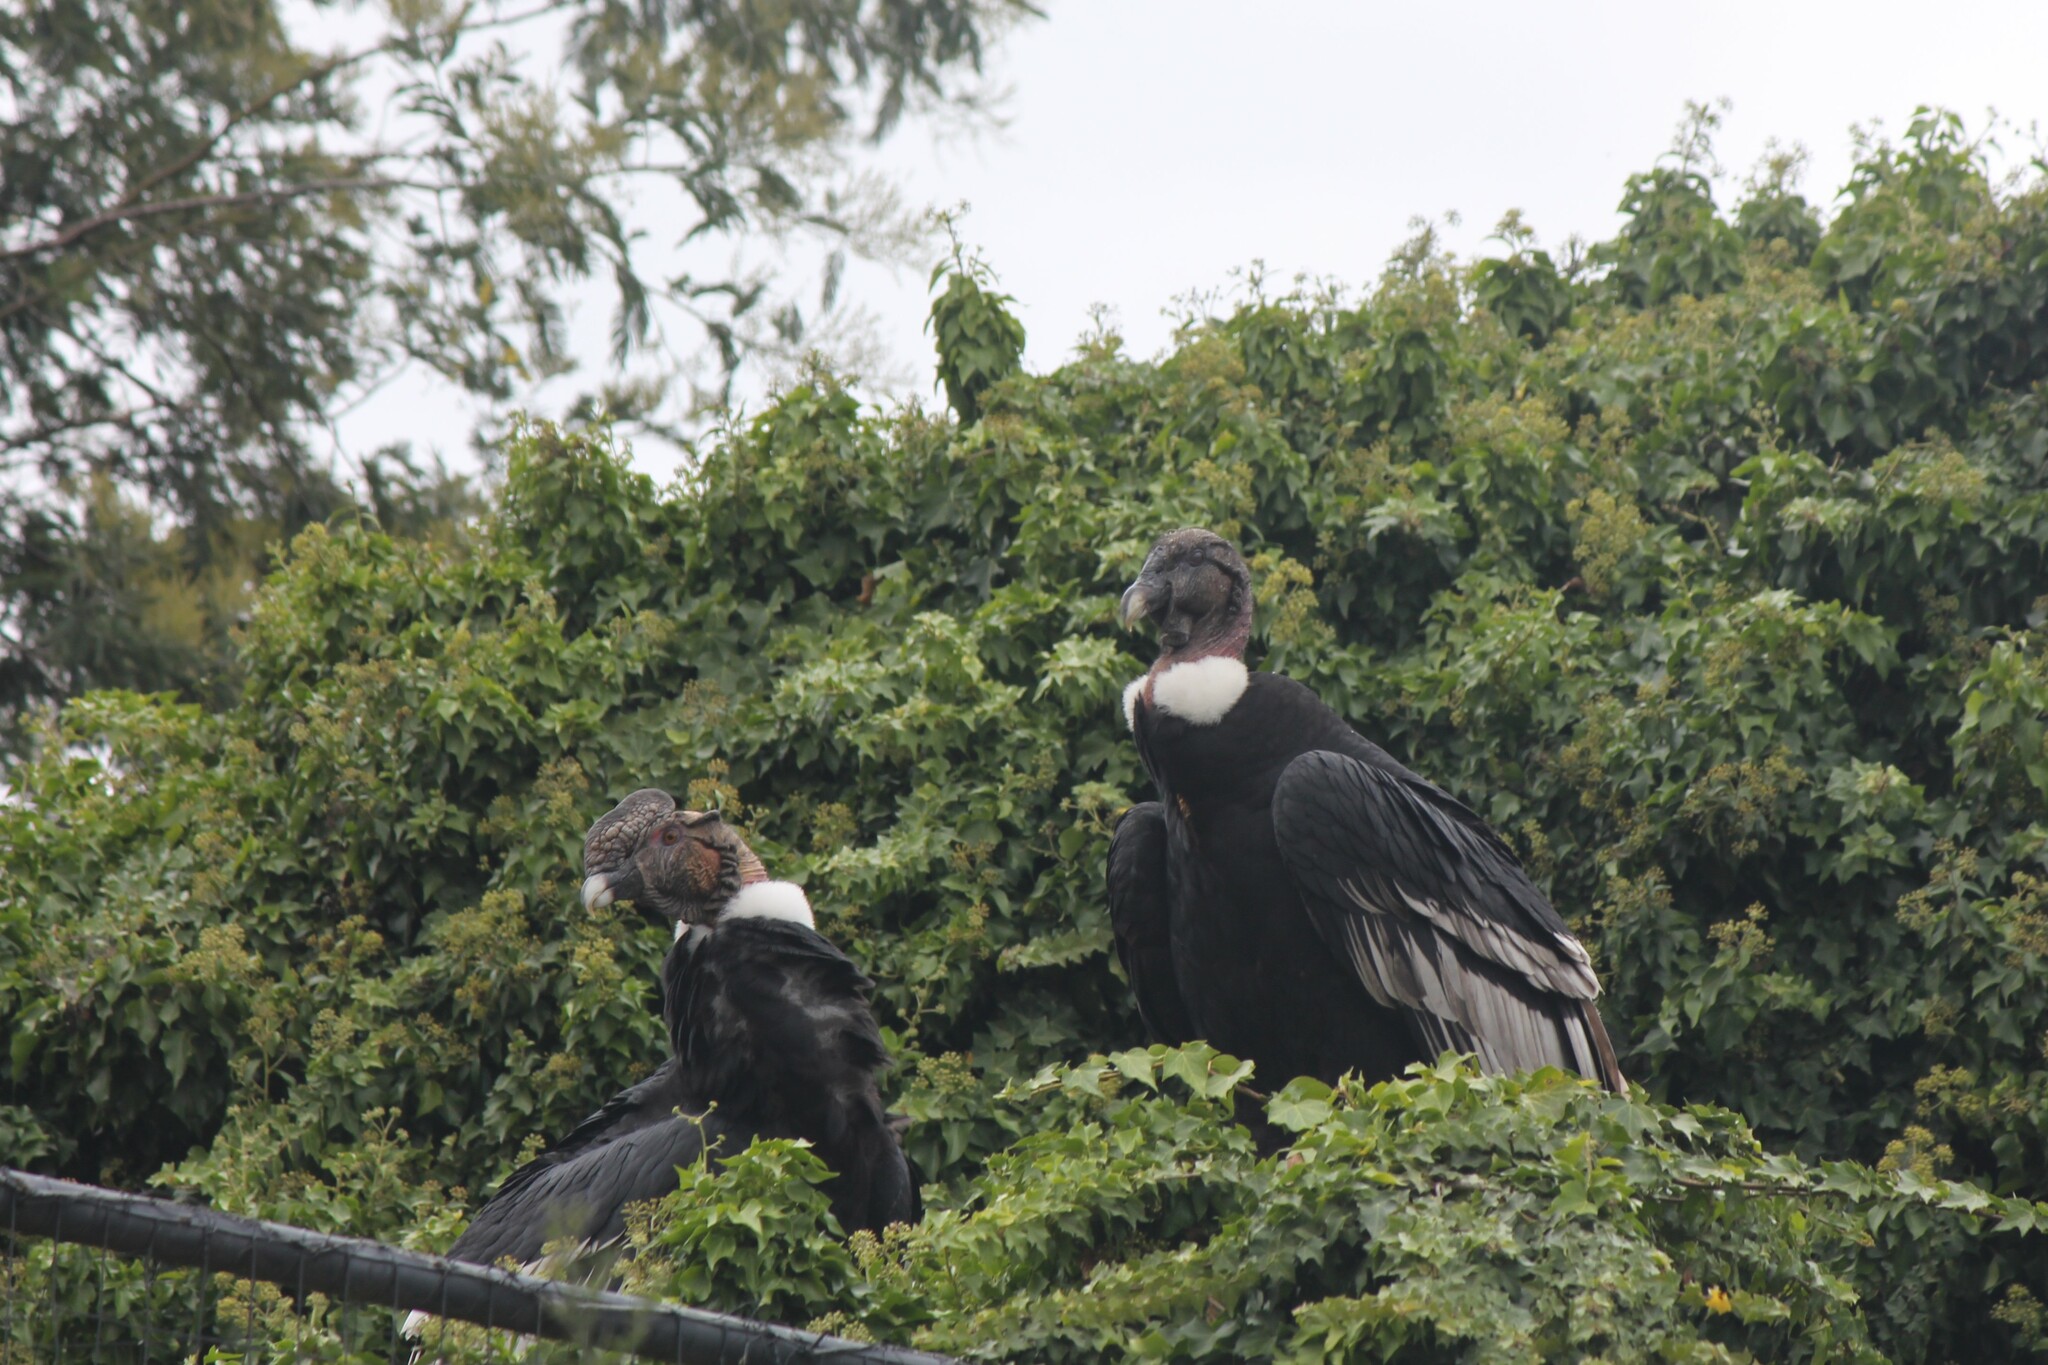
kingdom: Animalia
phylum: Chordata
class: Aves
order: Accipitriformes
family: Cathartidae
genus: Vultur
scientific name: Vultur gryphus
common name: Andean condor
